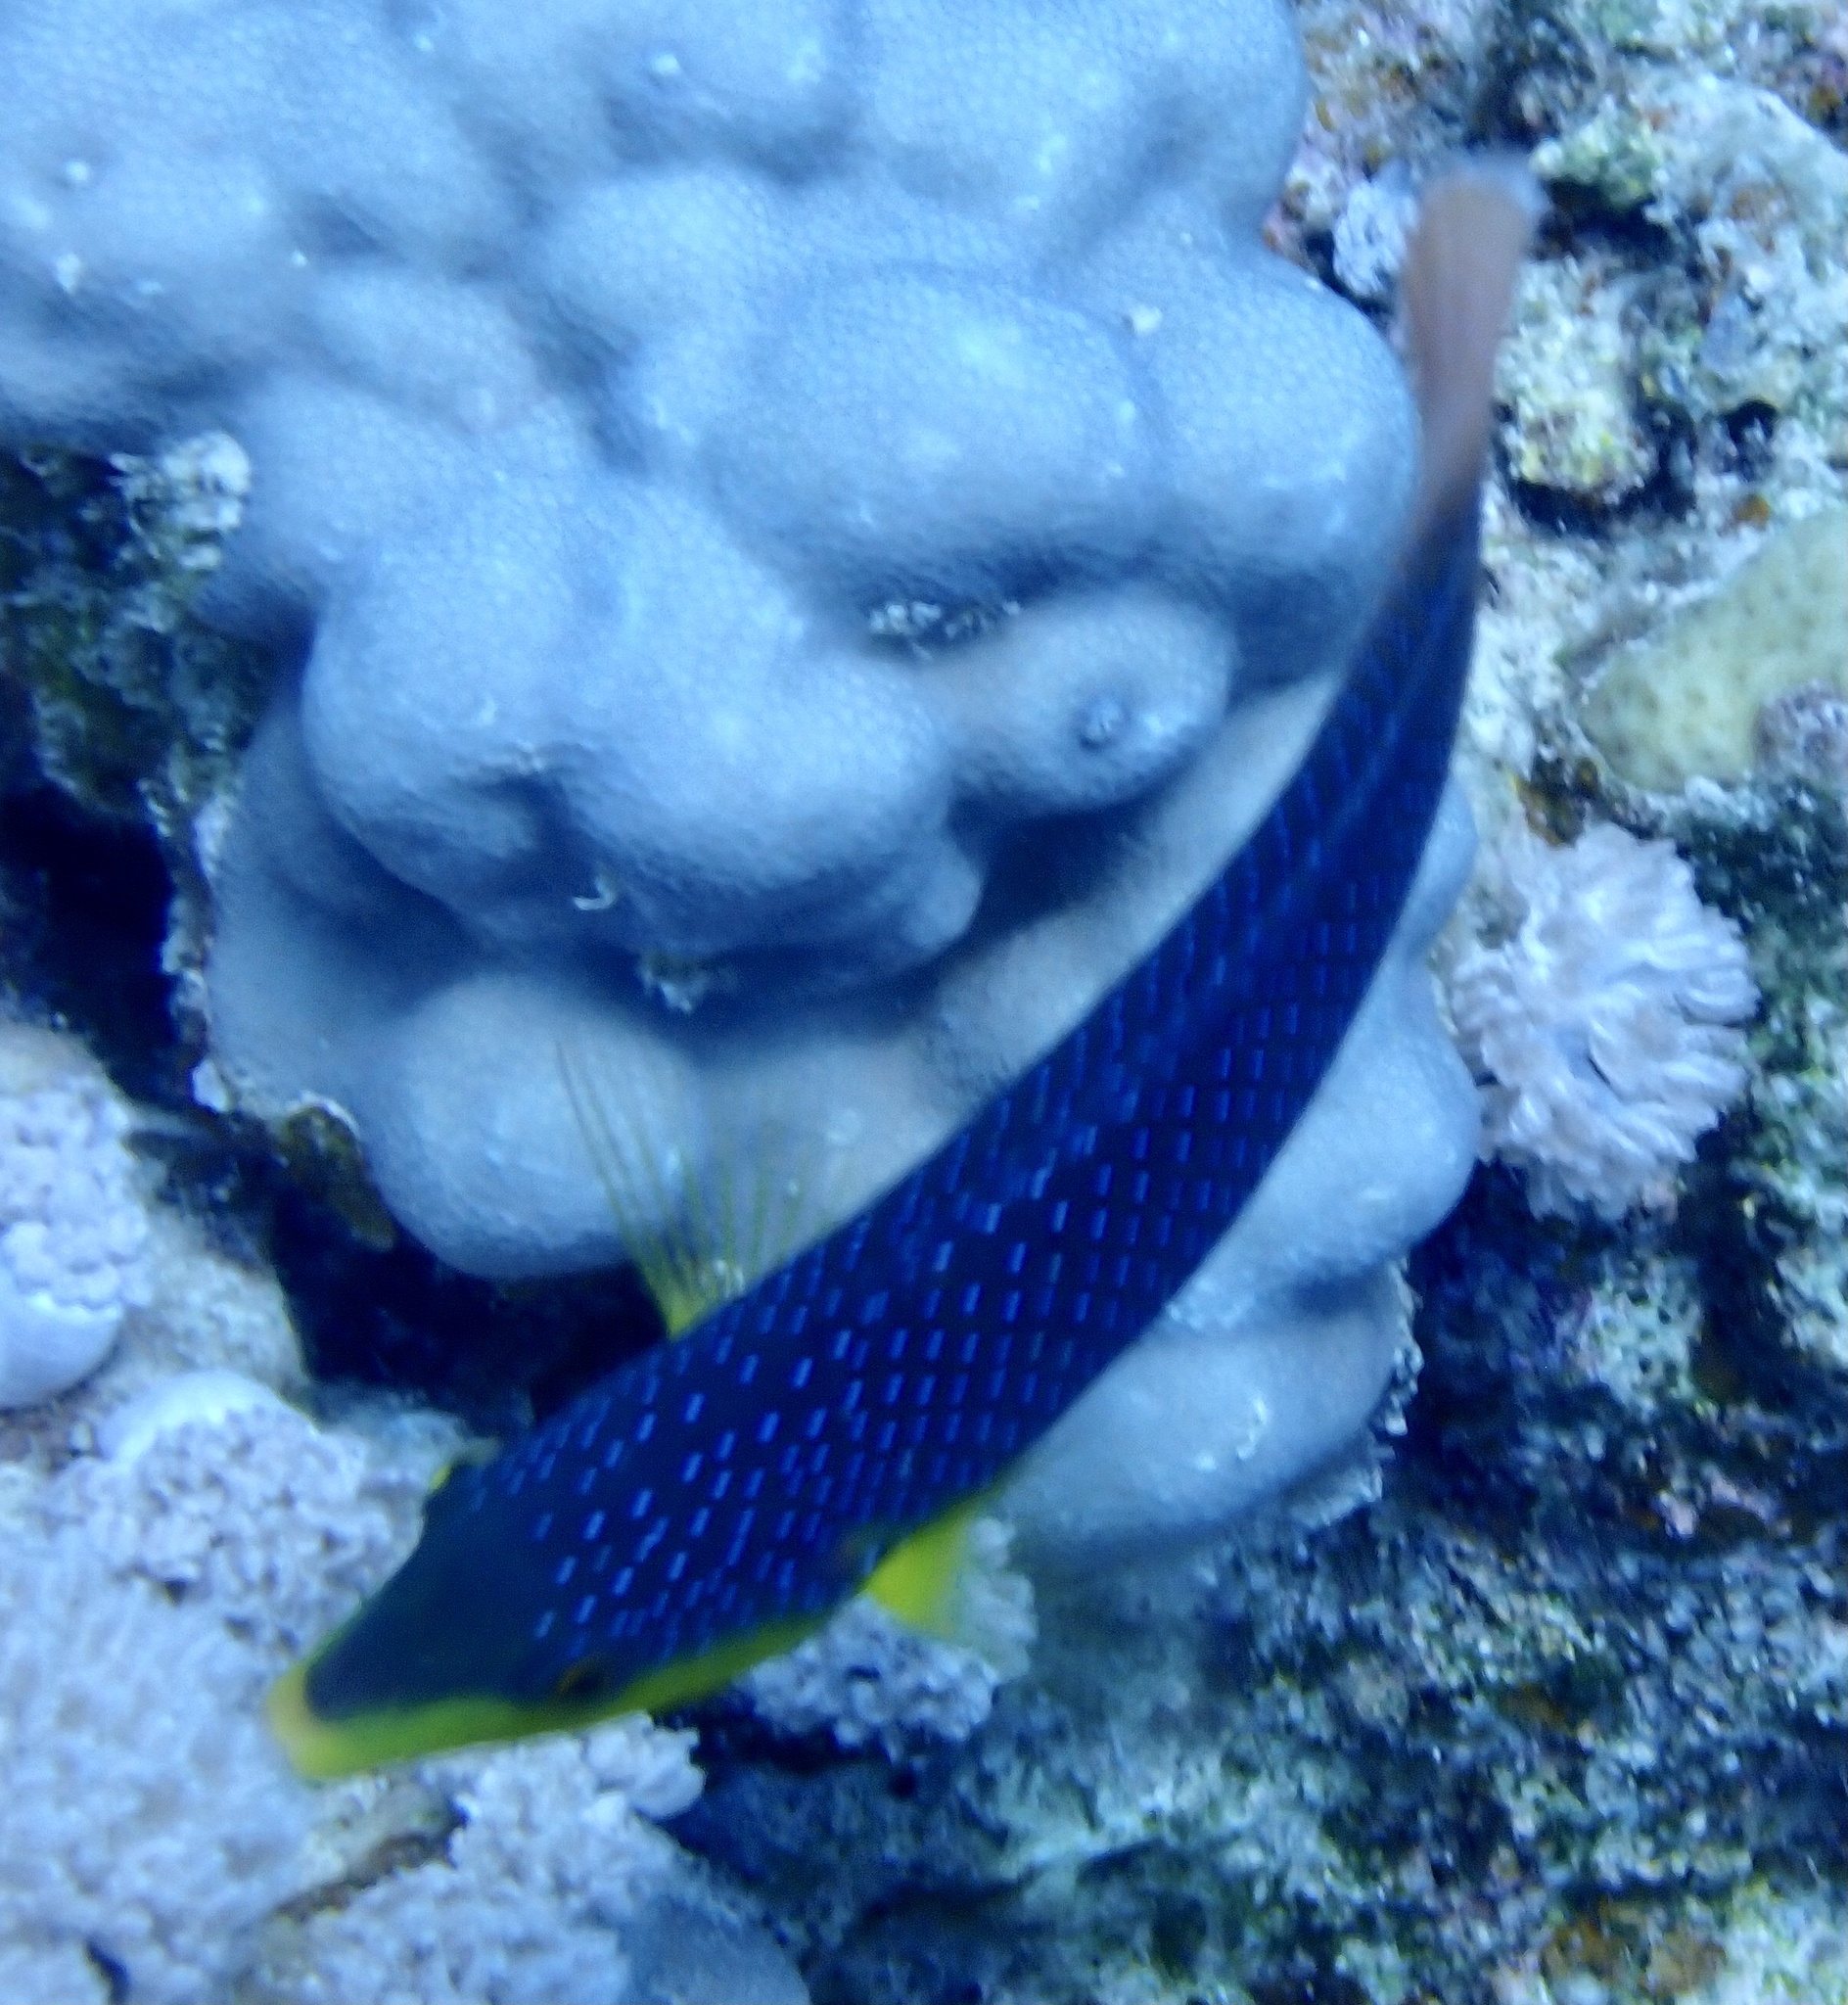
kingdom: Animalia
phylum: Chordata
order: Perciformes
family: Labridae
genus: Anampses
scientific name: Anampses twistii
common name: Yellowbreasted wrasse
